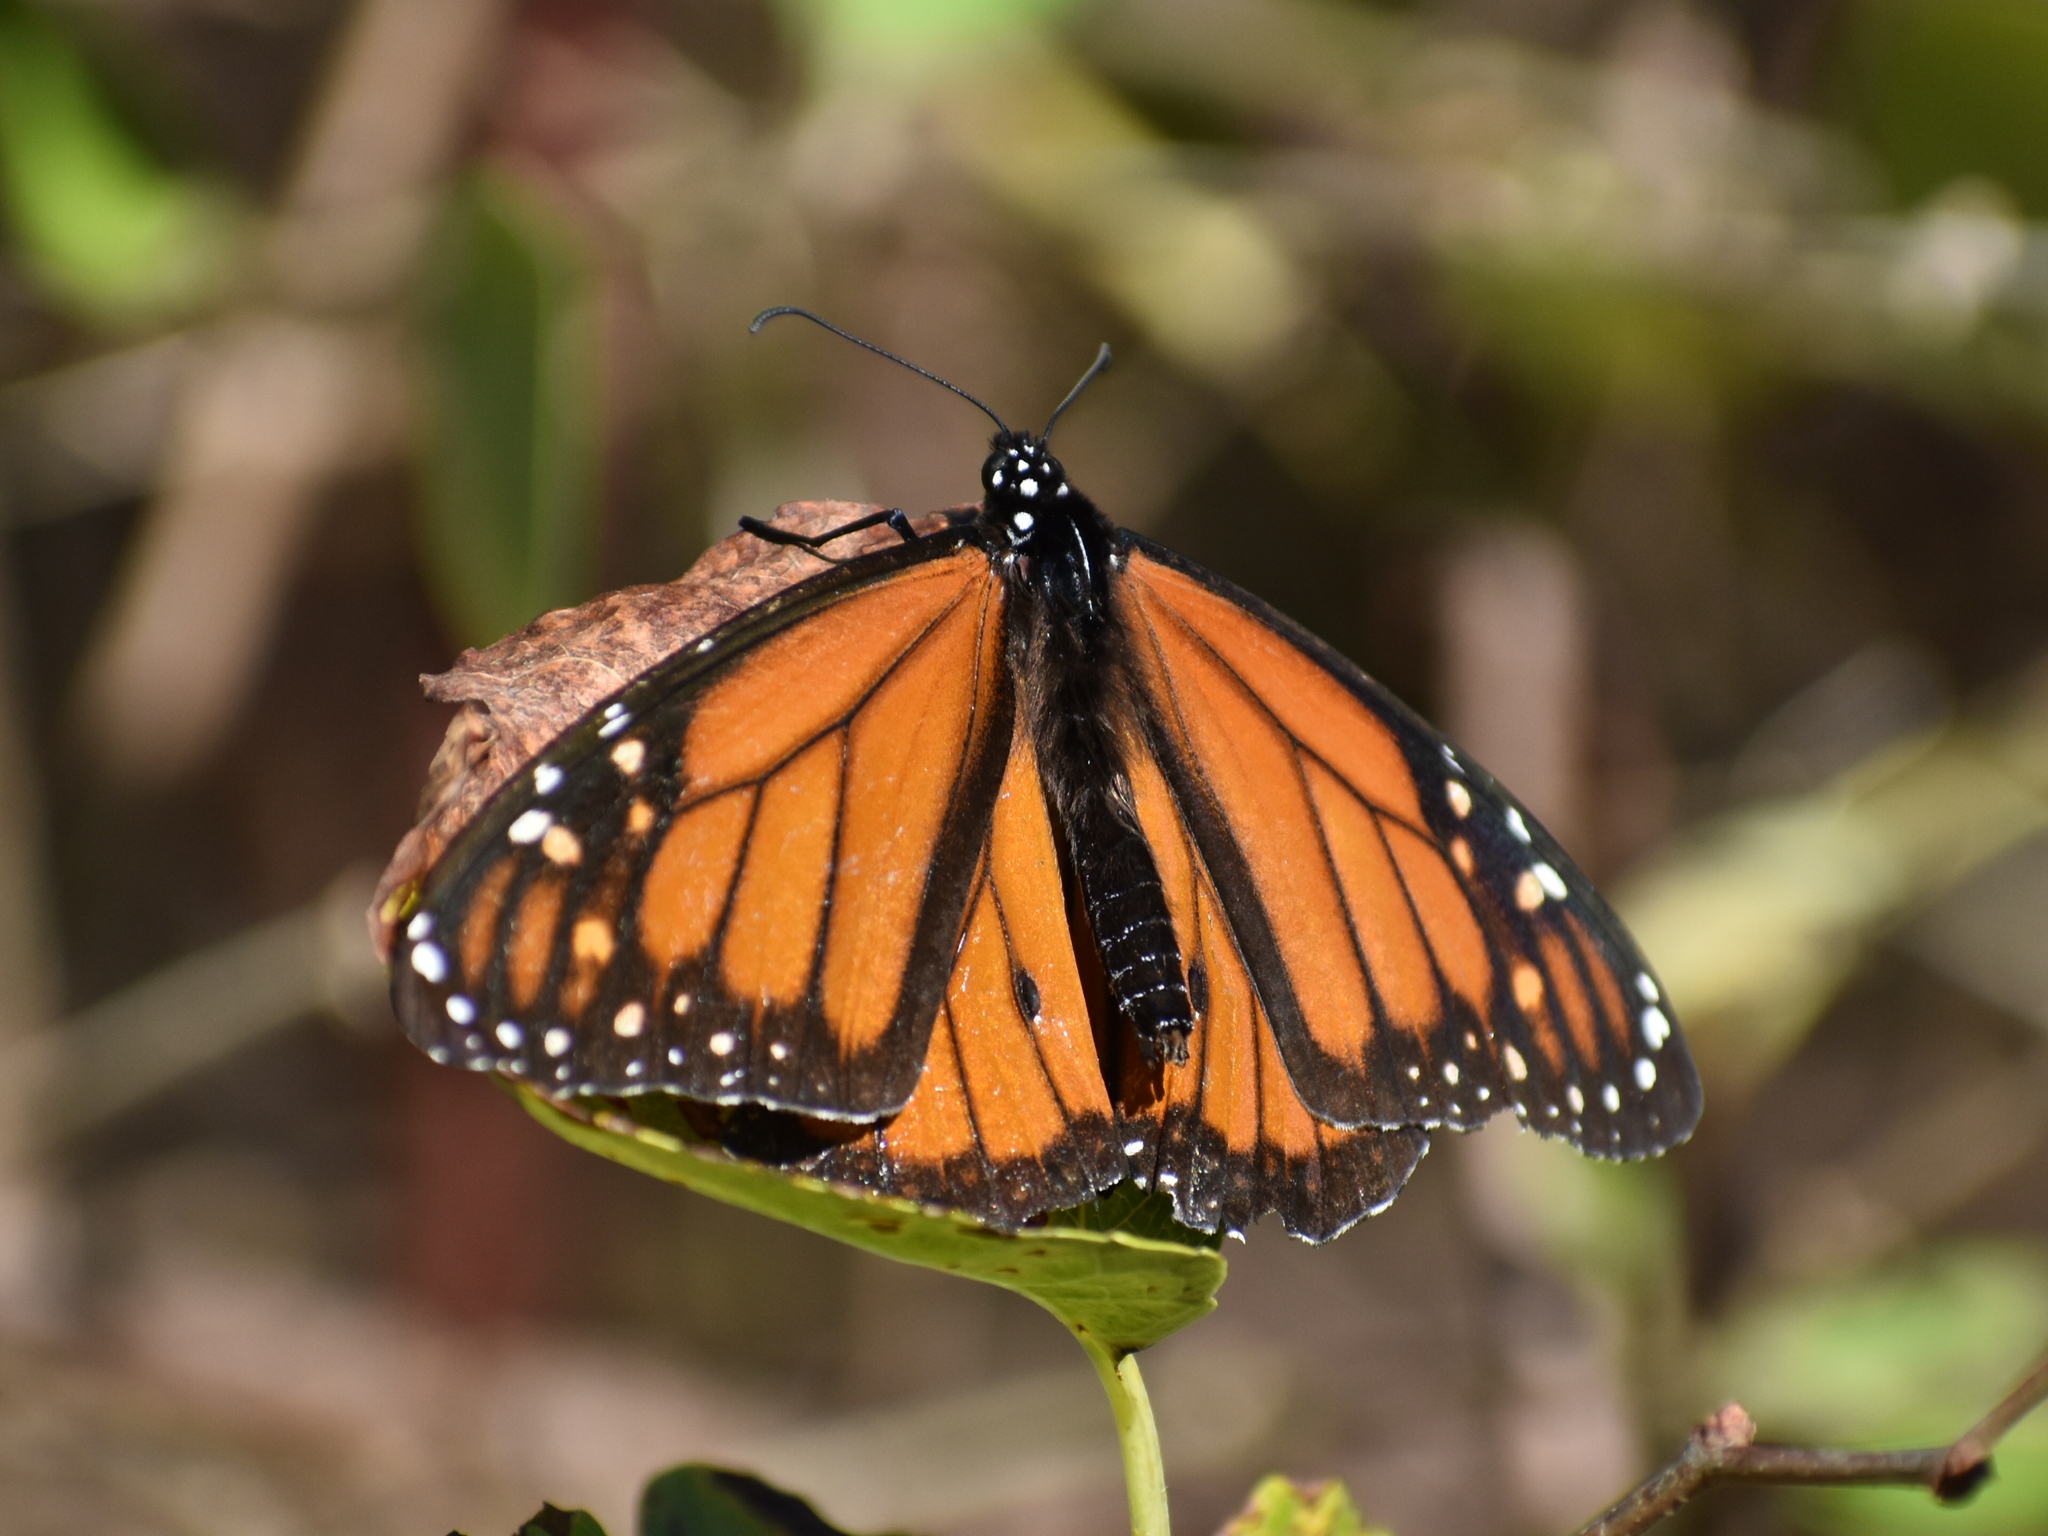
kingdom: Animalia
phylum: Arthropoda
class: Insecta
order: Lepidoptera
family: Nymphalidae
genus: Danaus
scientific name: Danaus plexippus
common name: Monarch
